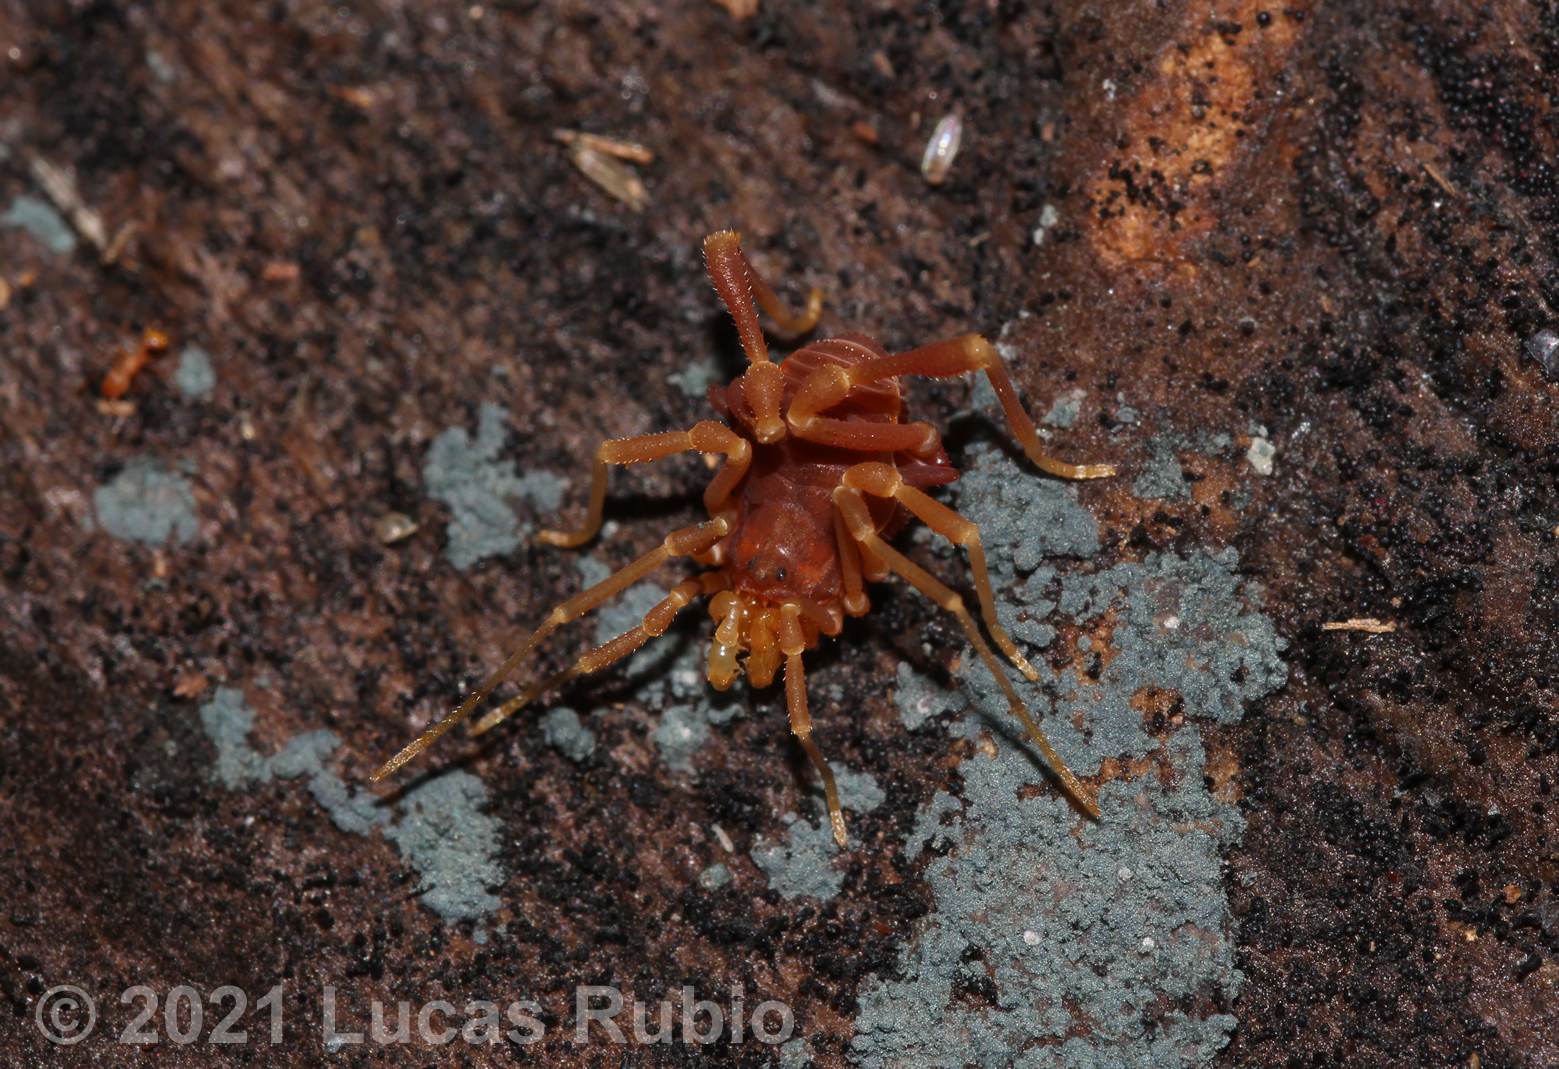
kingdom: Animalia
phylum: Arthropoda
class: Arachnida
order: Opiliones
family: Gonyleptidae
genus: Eusarcus
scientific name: Eusarcus hastatus
